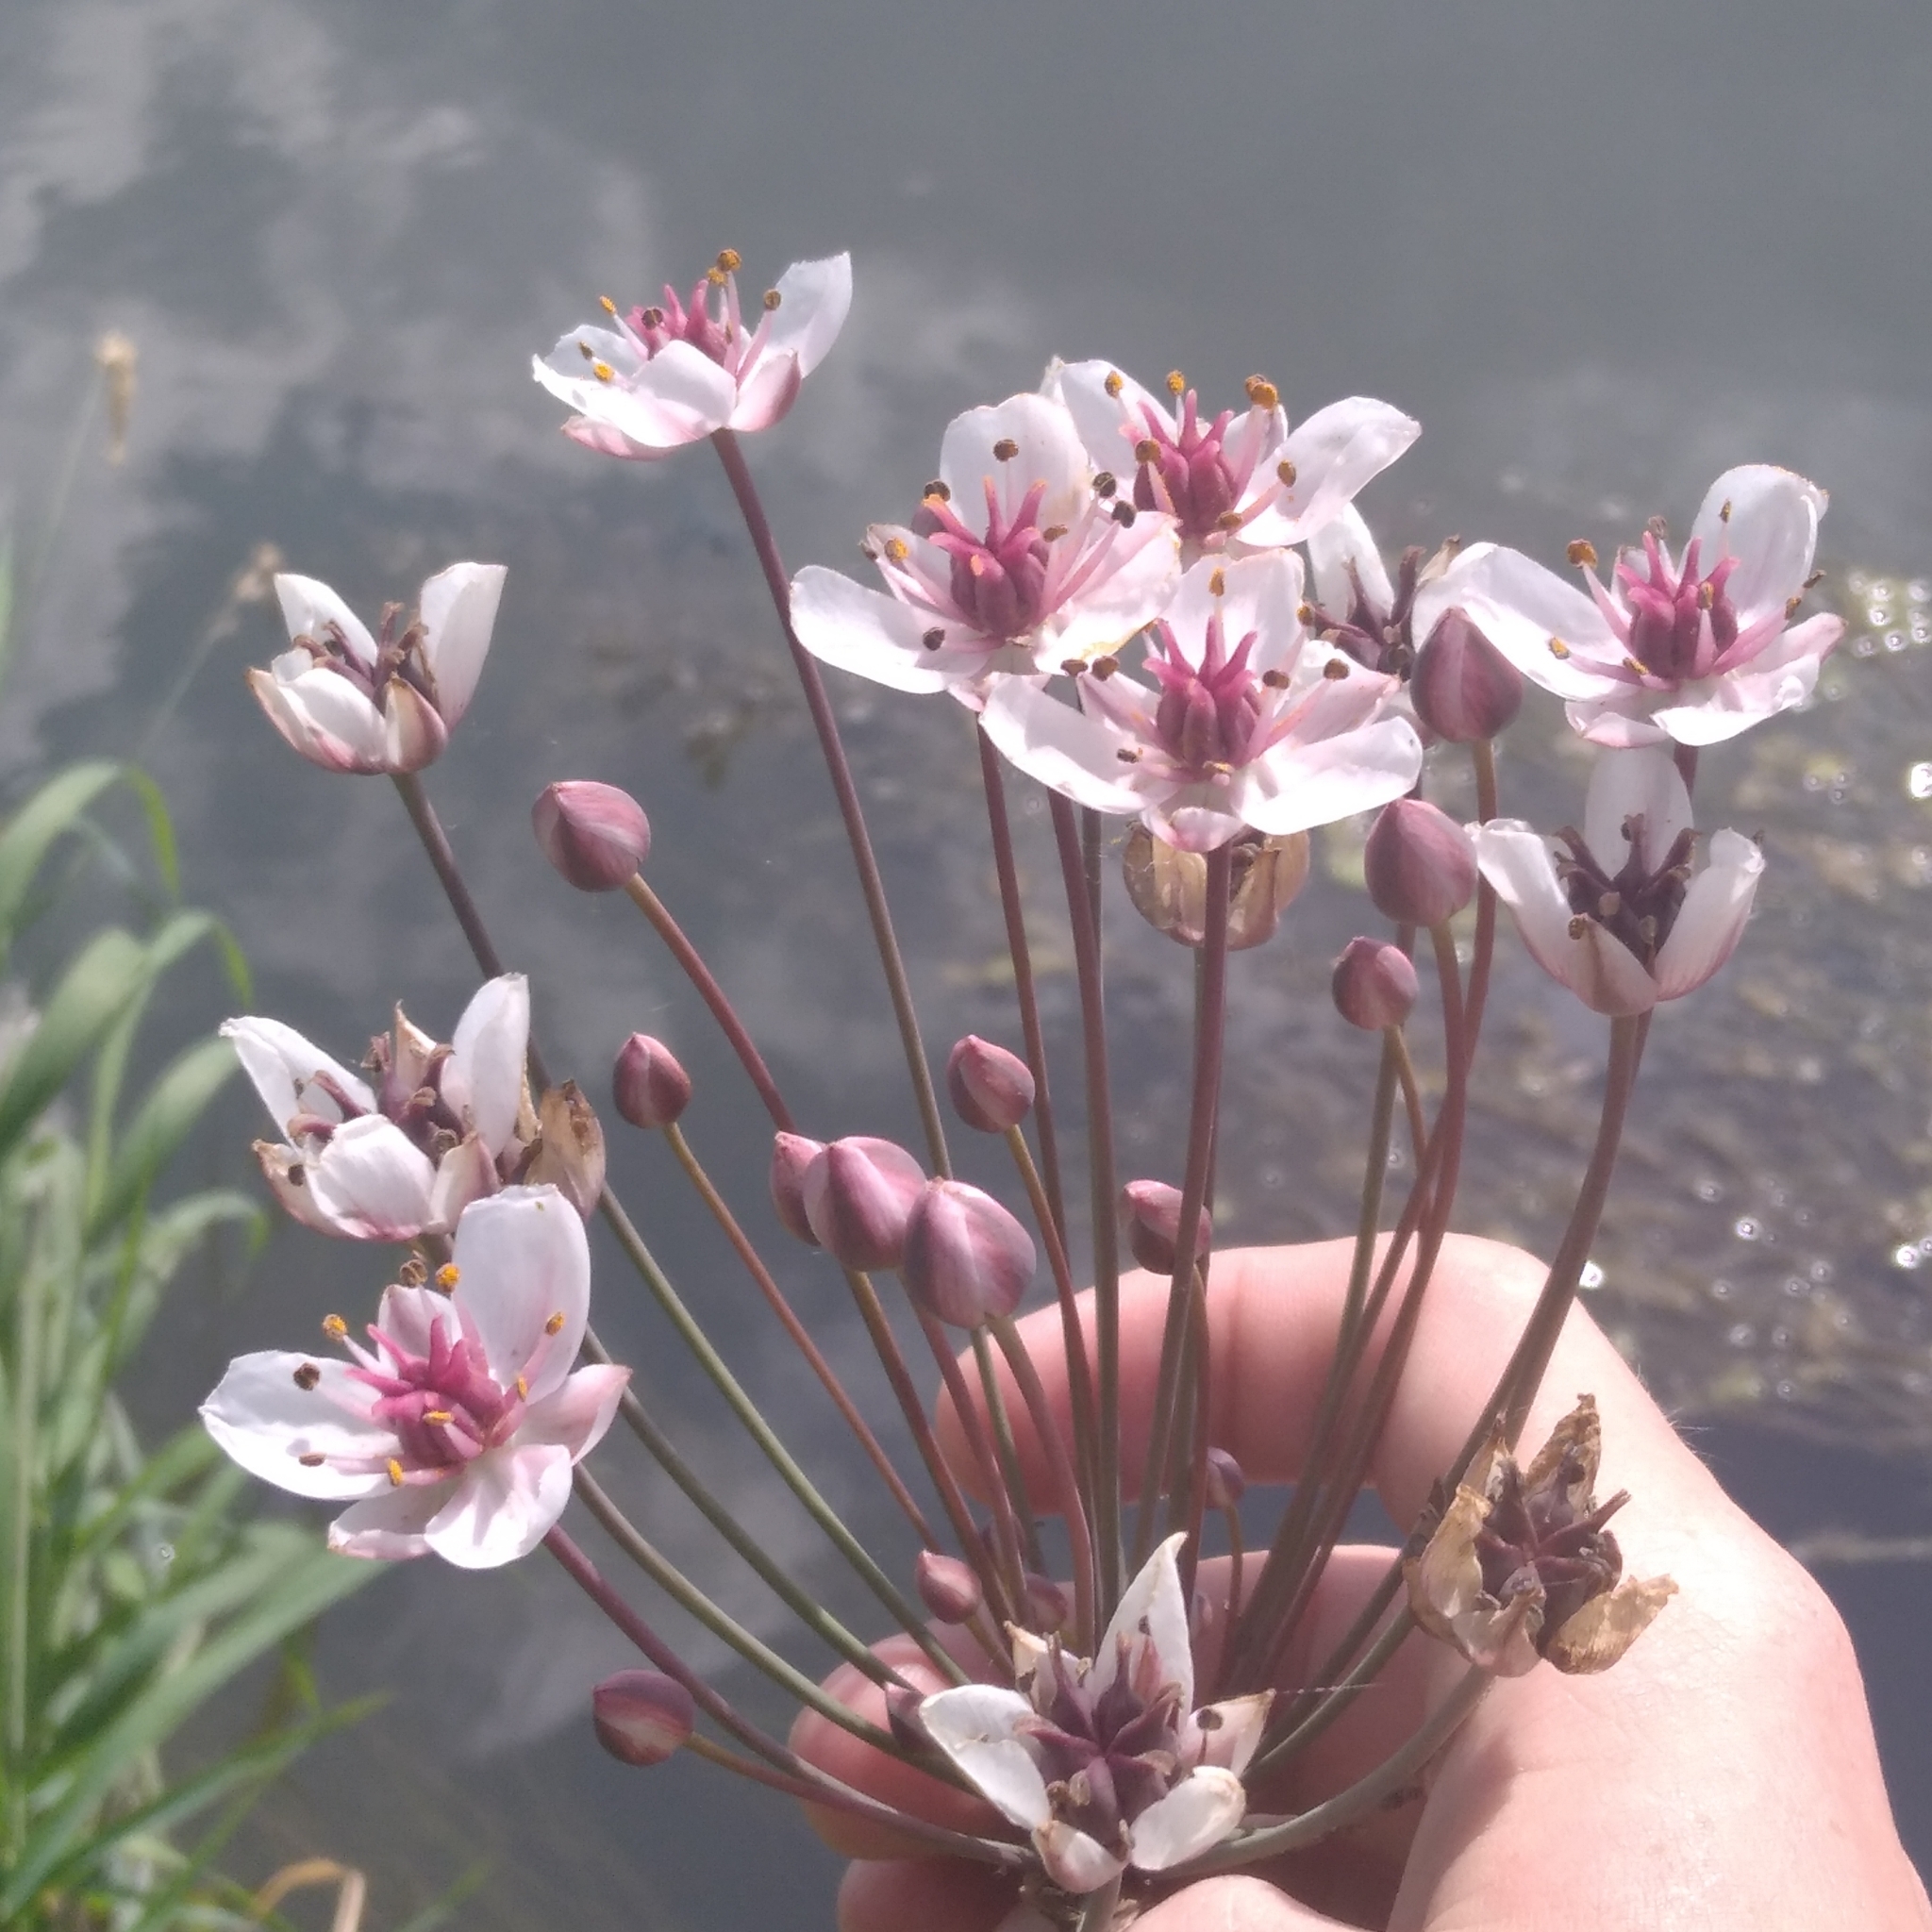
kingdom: Plantae
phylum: Tracheophyta
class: Liliopsida
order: Alismatales
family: Butomaceae
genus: Butomus
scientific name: Butomus umbellatus
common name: Flowering-rush
